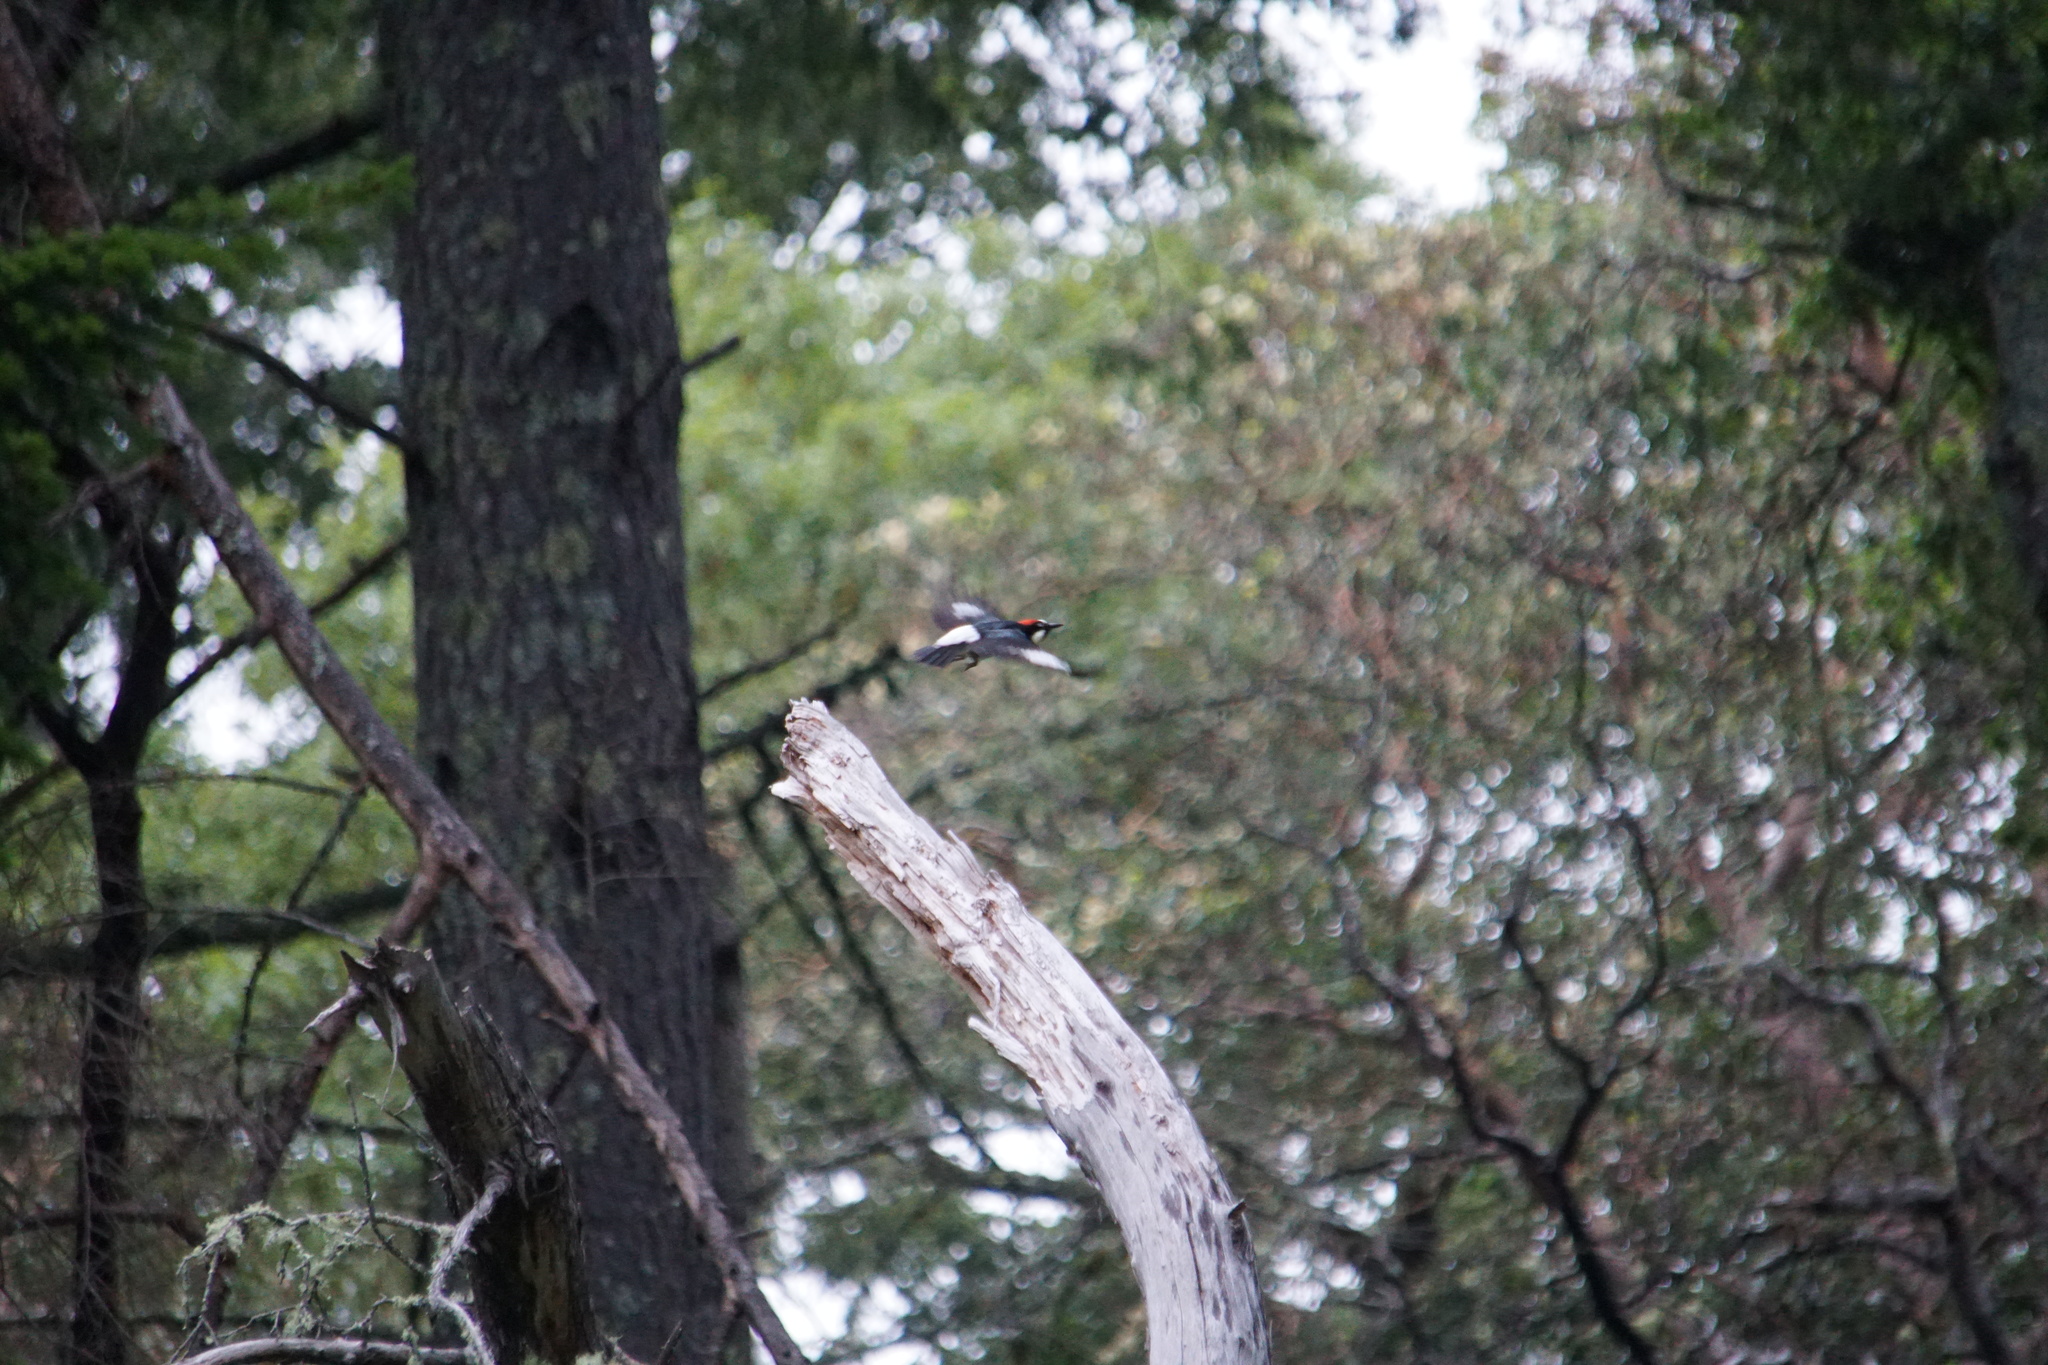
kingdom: Animalia
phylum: Chordata
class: Aves
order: Piciformes
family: Picidae
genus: Melanerpes
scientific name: Melanerpes formicivorus
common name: Acorn woodpecker
